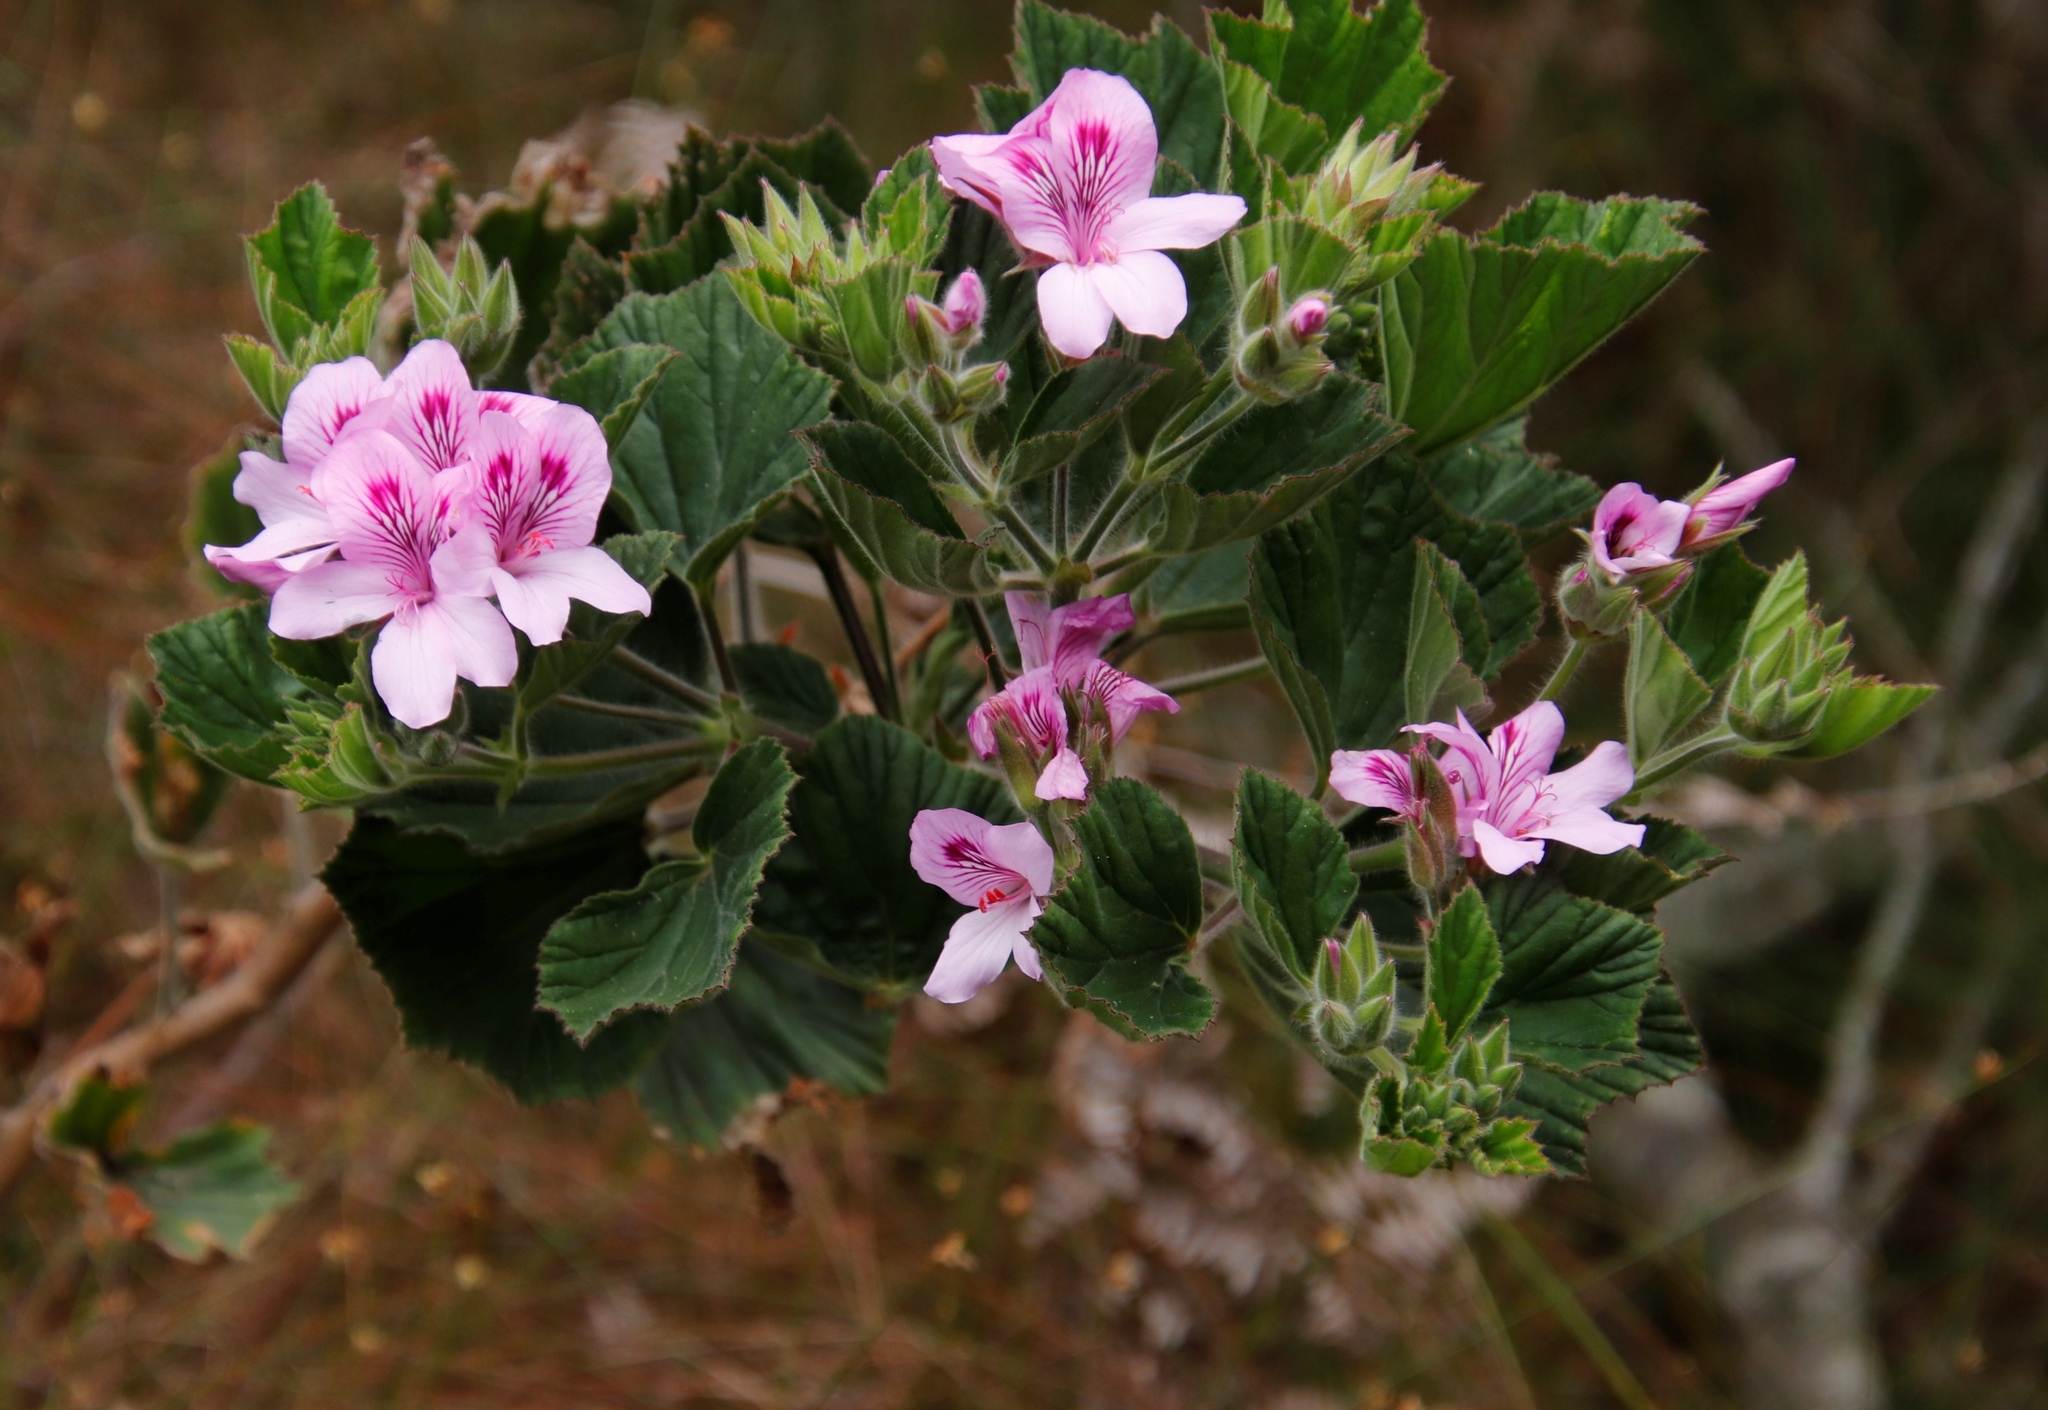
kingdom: Plantae
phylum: Tracheophyta
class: Magnoliopsida
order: Geraniales
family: Geraniaceae
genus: Pelargonium
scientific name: Pelargonium cucullatum
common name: Tree pelargonium
